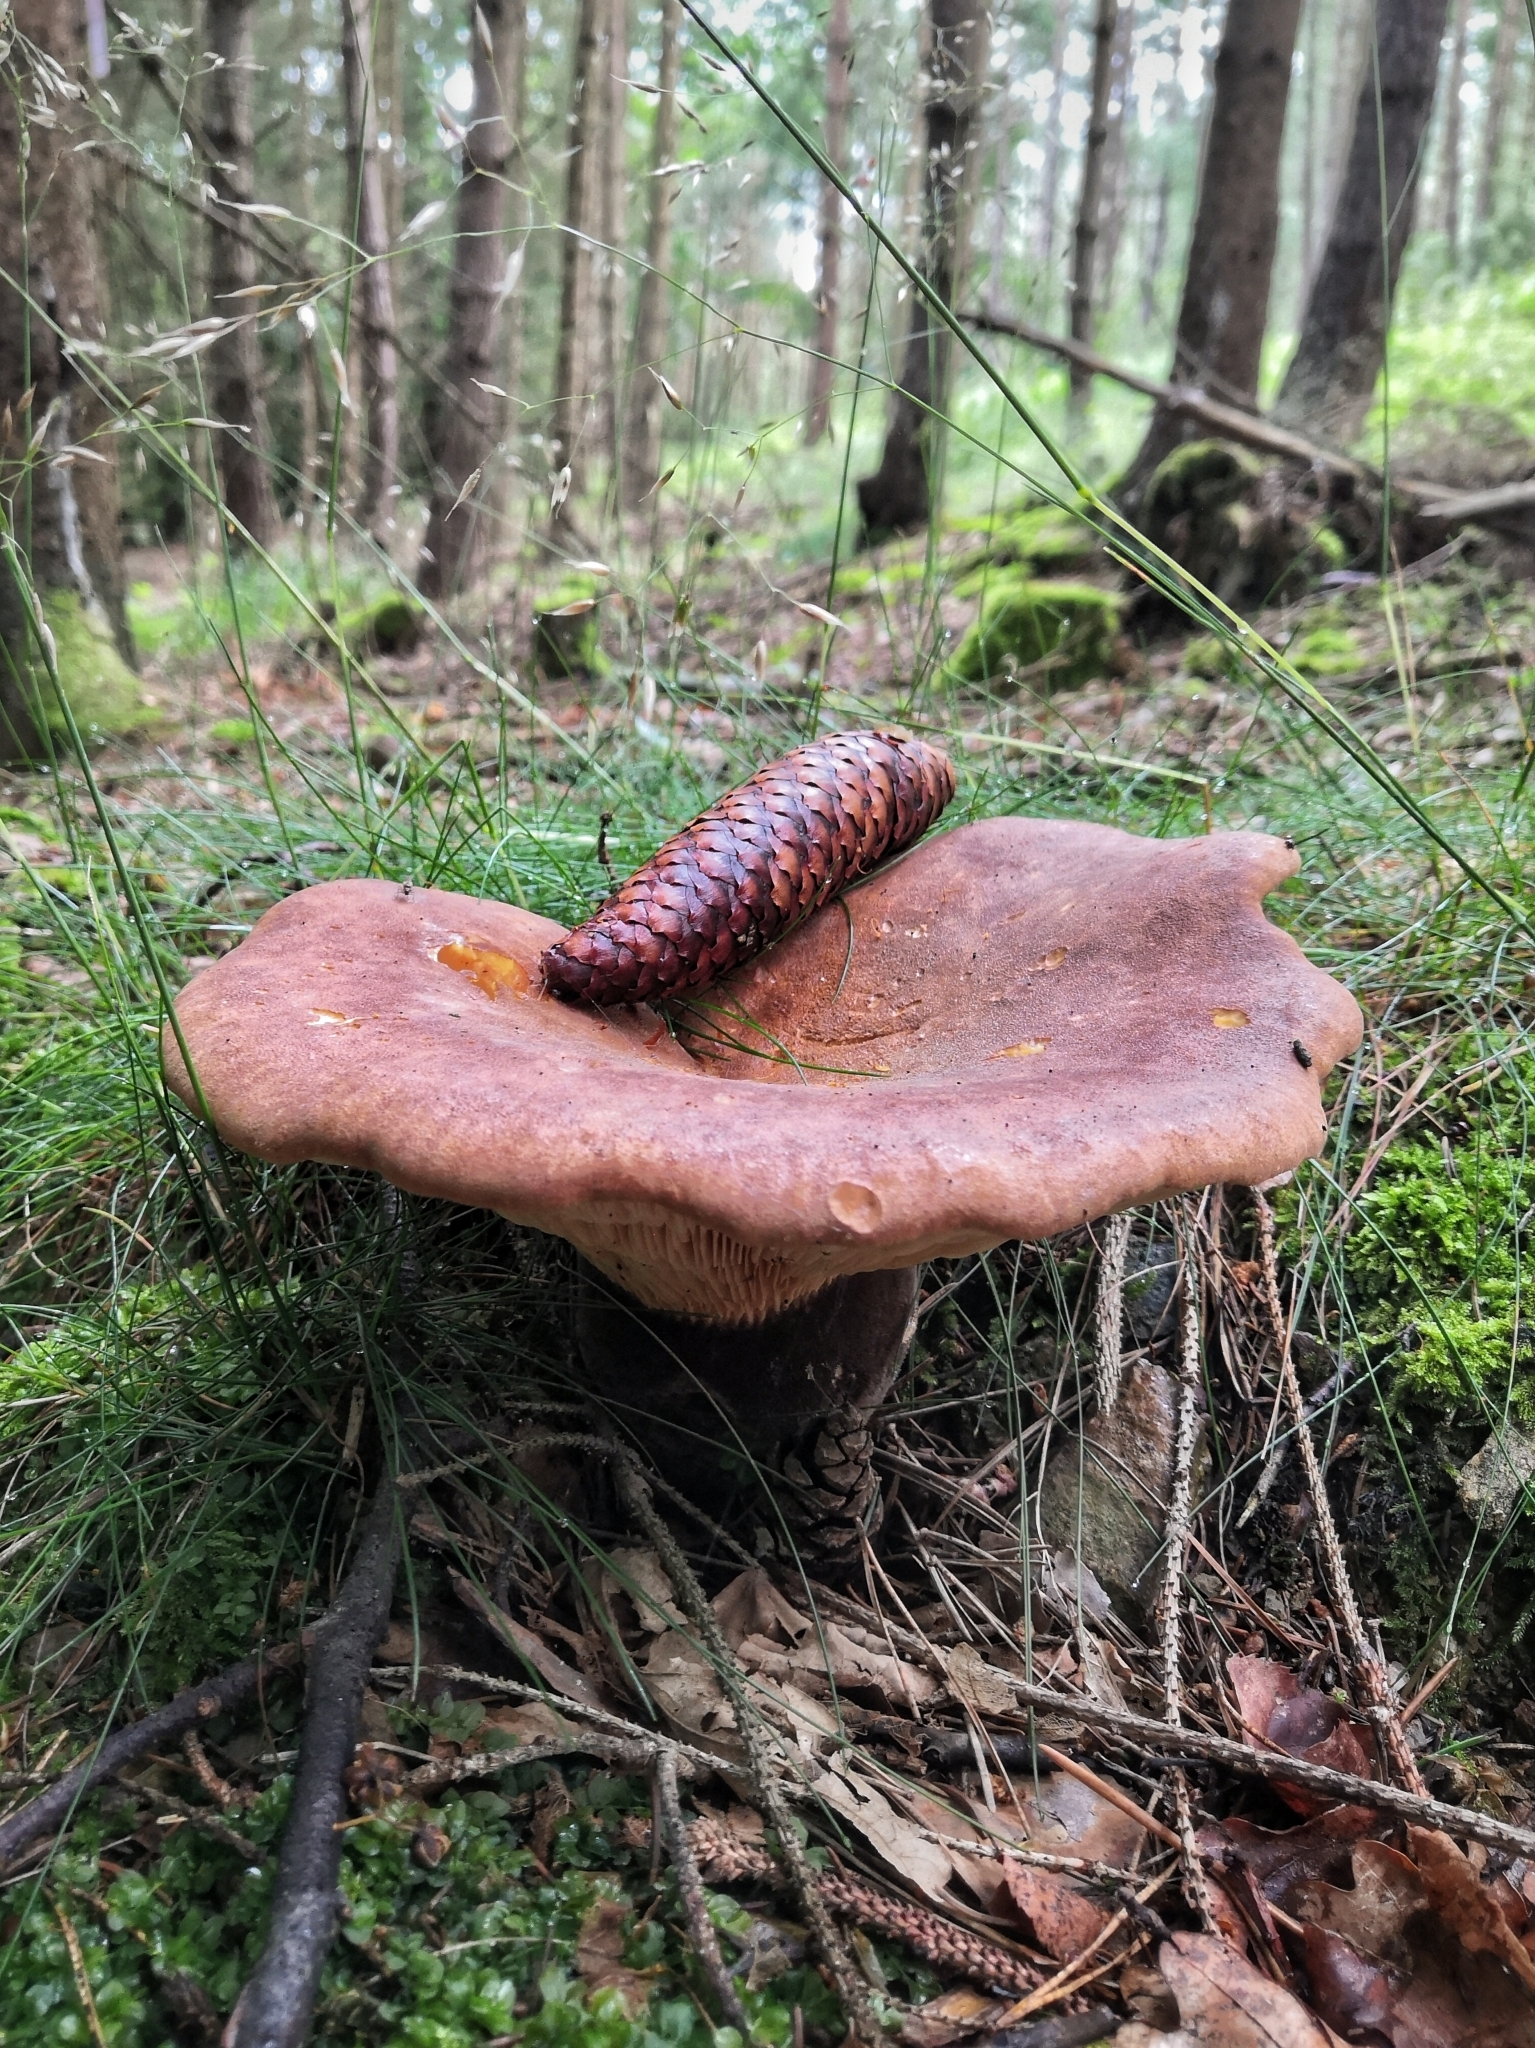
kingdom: Fungi
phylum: Basidiomycota
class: Agaricomycetes
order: Boletales
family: Tapinellaceae
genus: Tapinella
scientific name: Tapinella atrotomentosa
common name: Velvet rollrim
